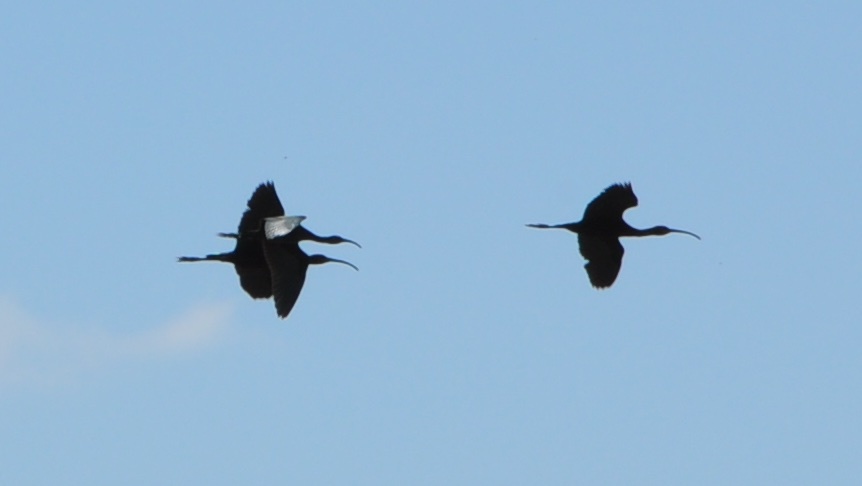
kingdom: Animalia
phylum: Chordata
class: Aves
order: Pelecaniformes
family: Threskiornithidae
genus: Plegadis
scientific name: Plegadis chihi
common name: White-faced ibis
